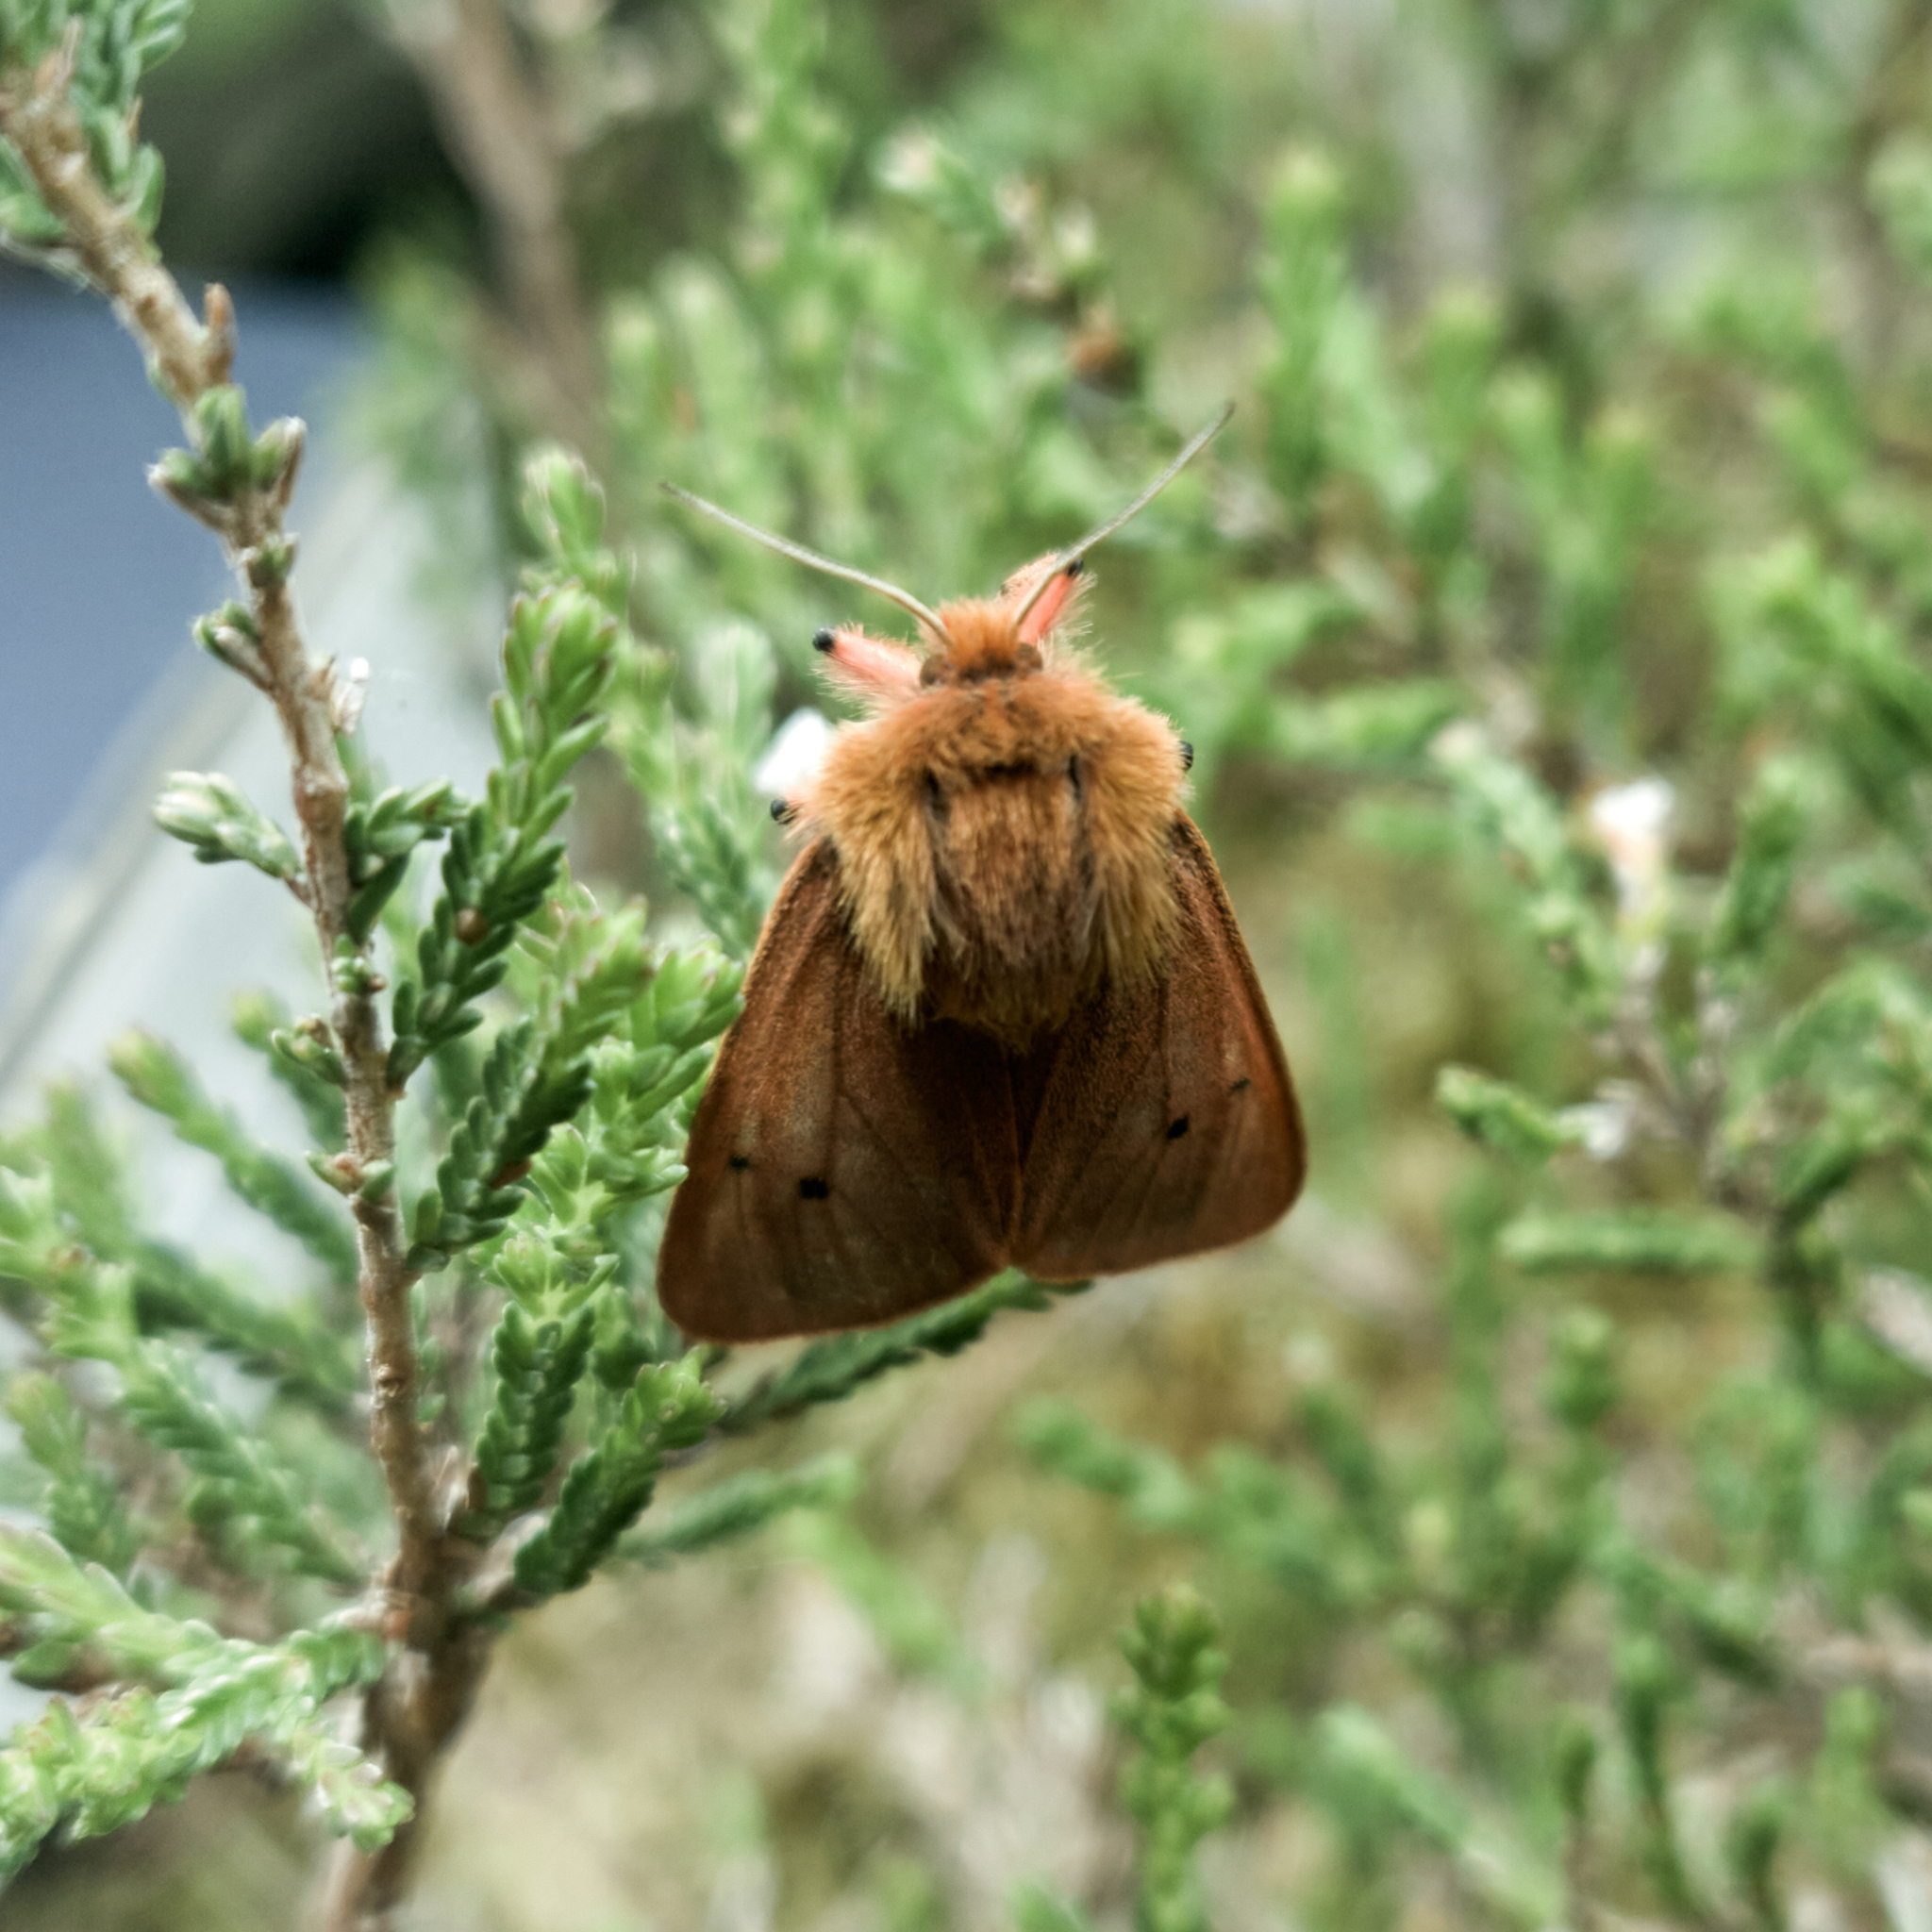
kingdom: Animalia
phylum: Arthropoda
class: Insecta
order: Lepidoptera
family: Erebidae
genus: Phragmatobia
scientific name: Phragmatobia fuliginosa
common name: Ruby tiger
